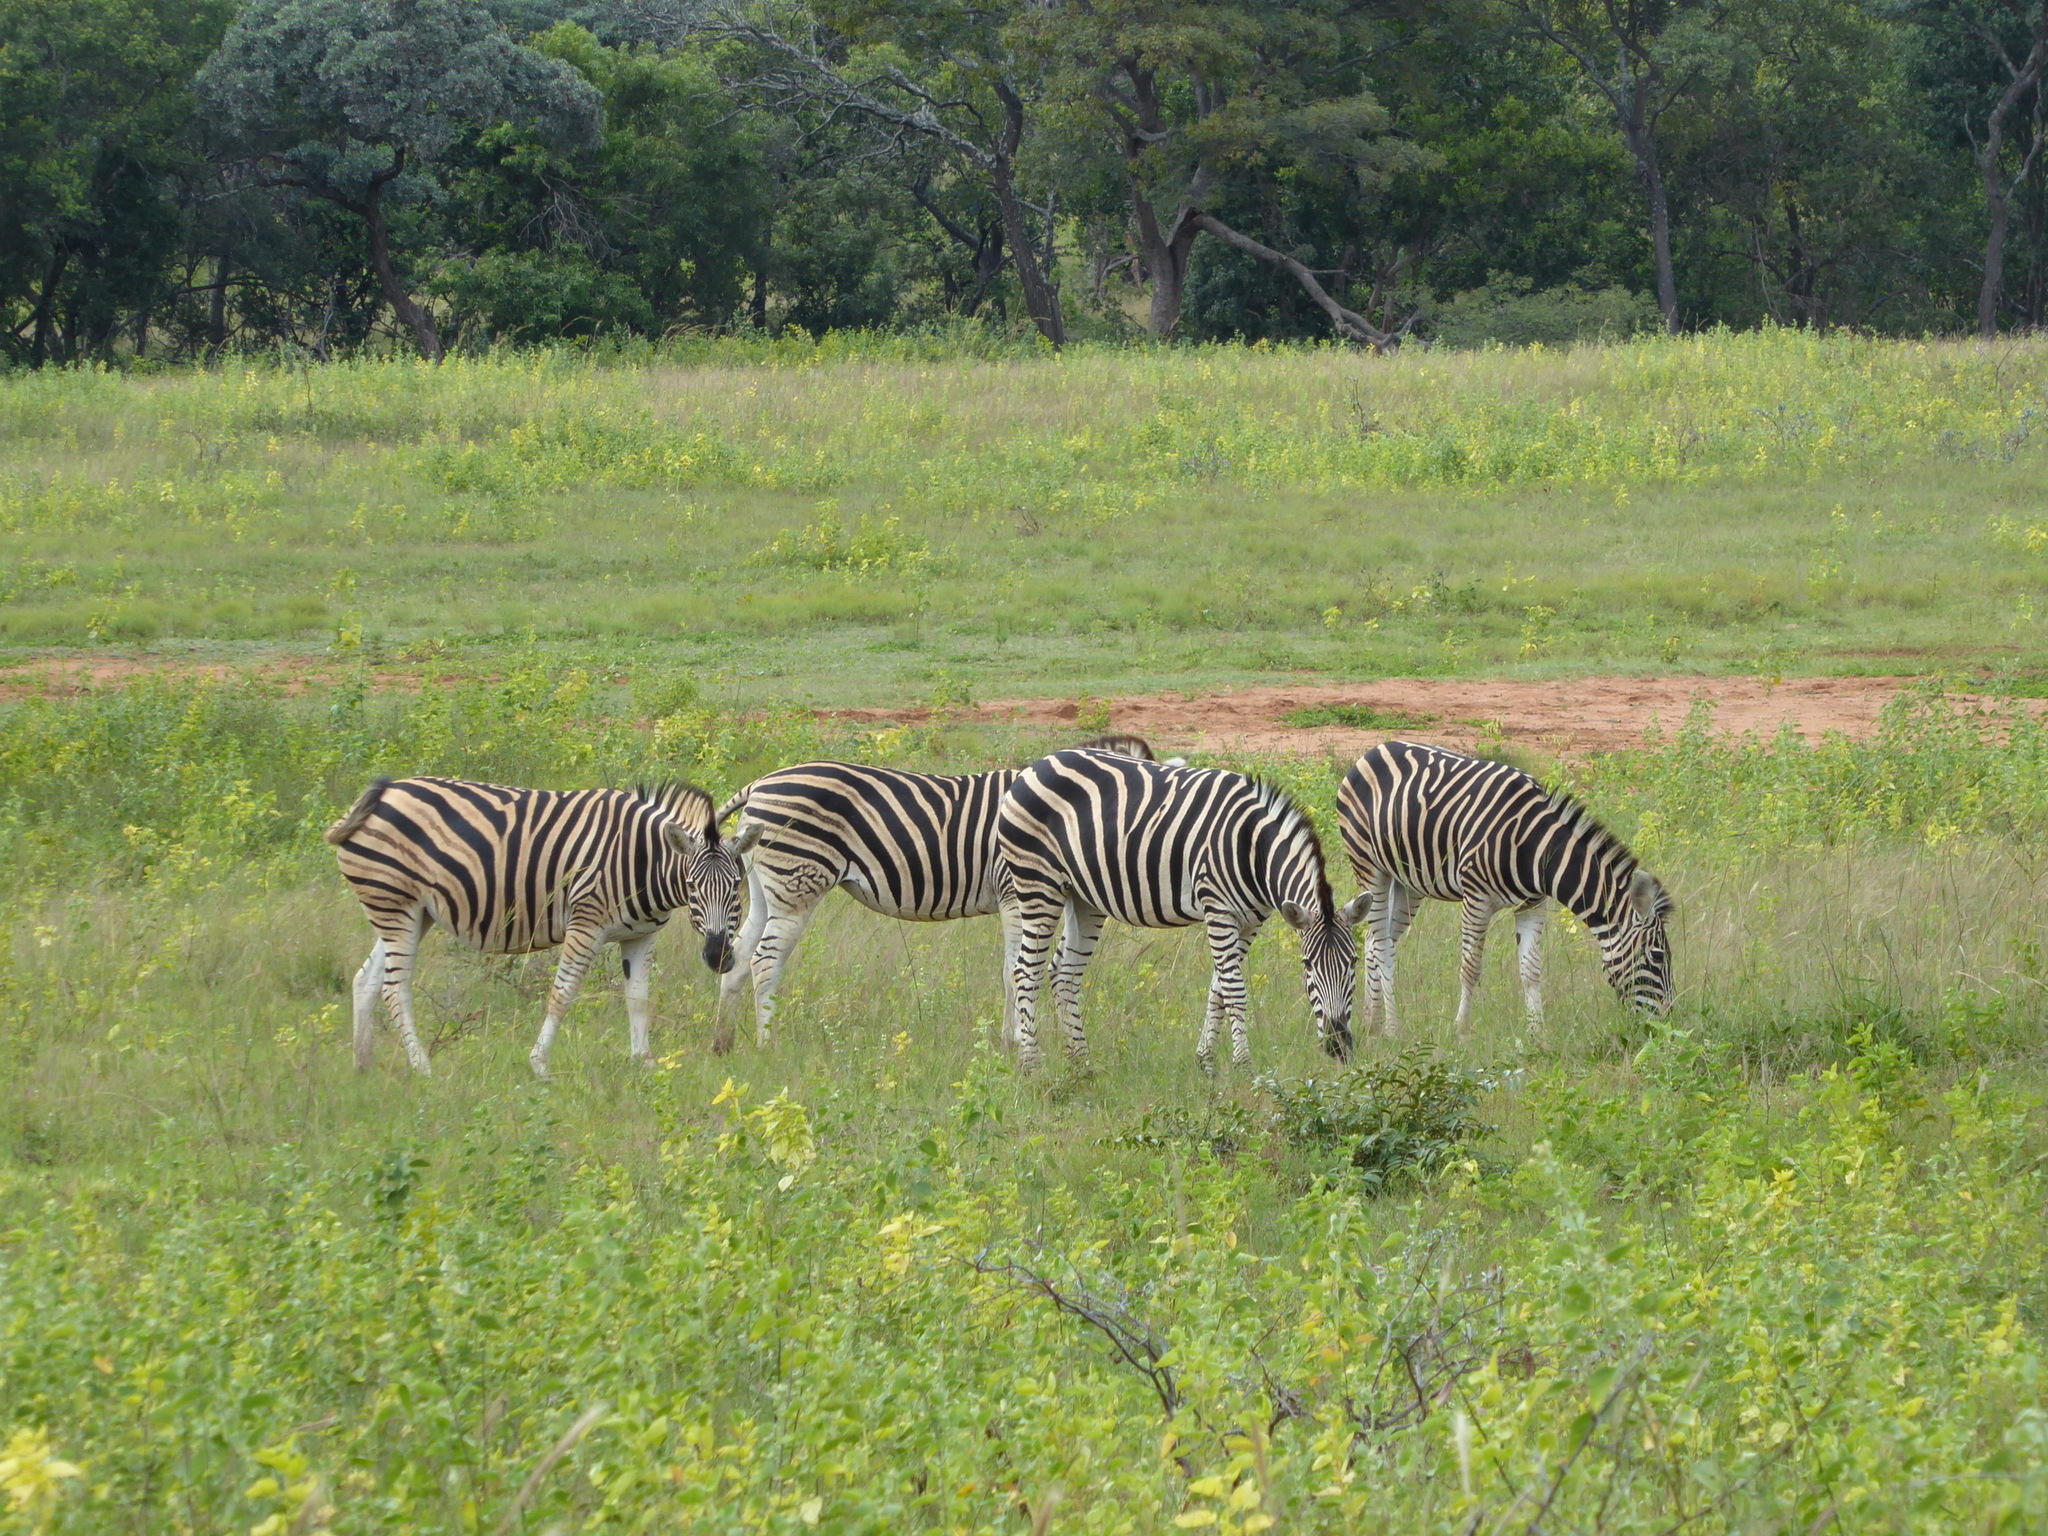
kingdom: Animalia
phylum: Chordata
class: Mammalia
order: Perissodactyla
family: Equidae
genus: Equus
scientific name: Equus quagga
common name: Plains zebra
